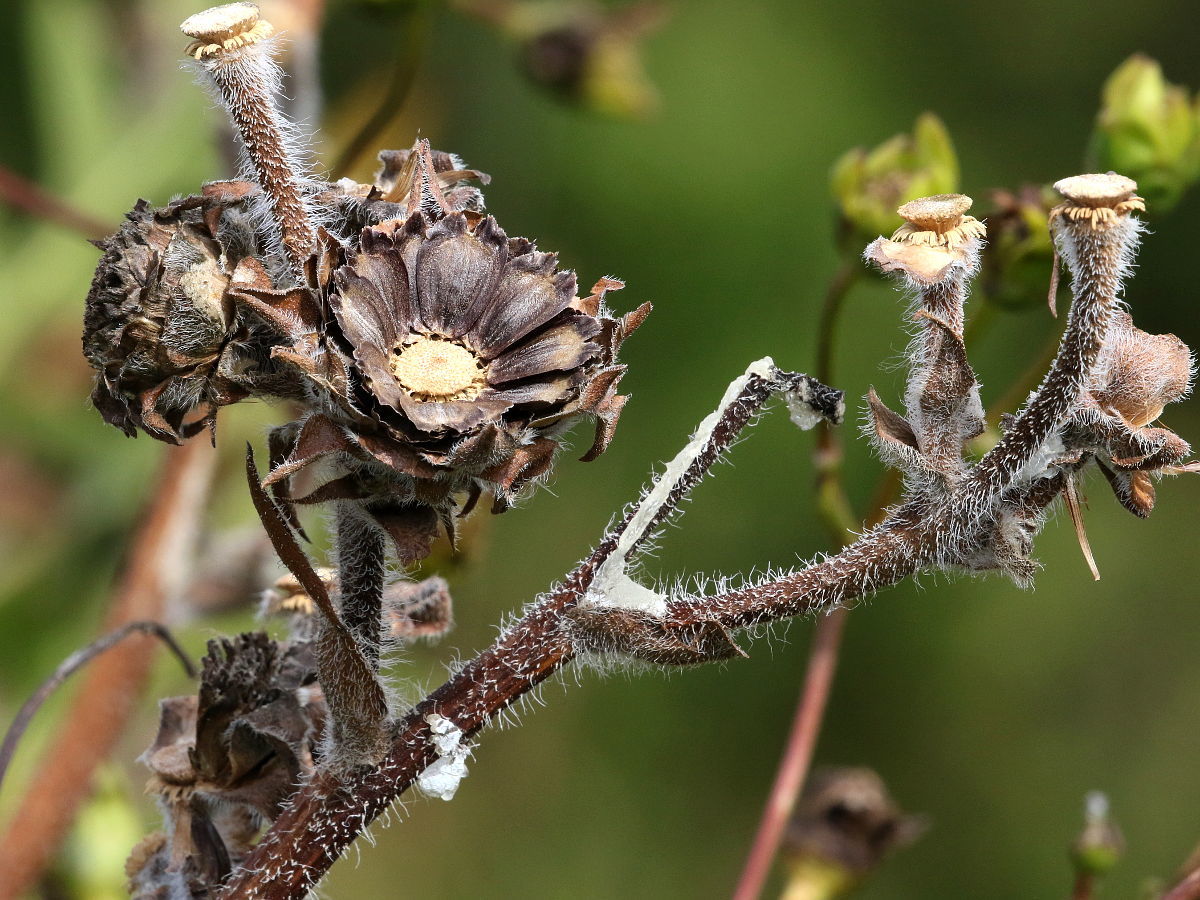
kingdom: Plantae
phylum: Tracheophyta
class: Magnoliopsida
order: Asterales
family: Asteraceae
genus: Silphium
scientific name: Silphium laciniatum
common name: Polarplant
